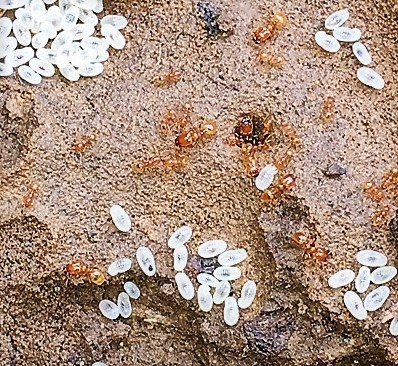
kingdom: Animalia
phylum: Arthropoda
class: Insecta
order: Hymenoptera
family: Formicidae
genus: Pheidole
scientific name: Pheidole tysoni
